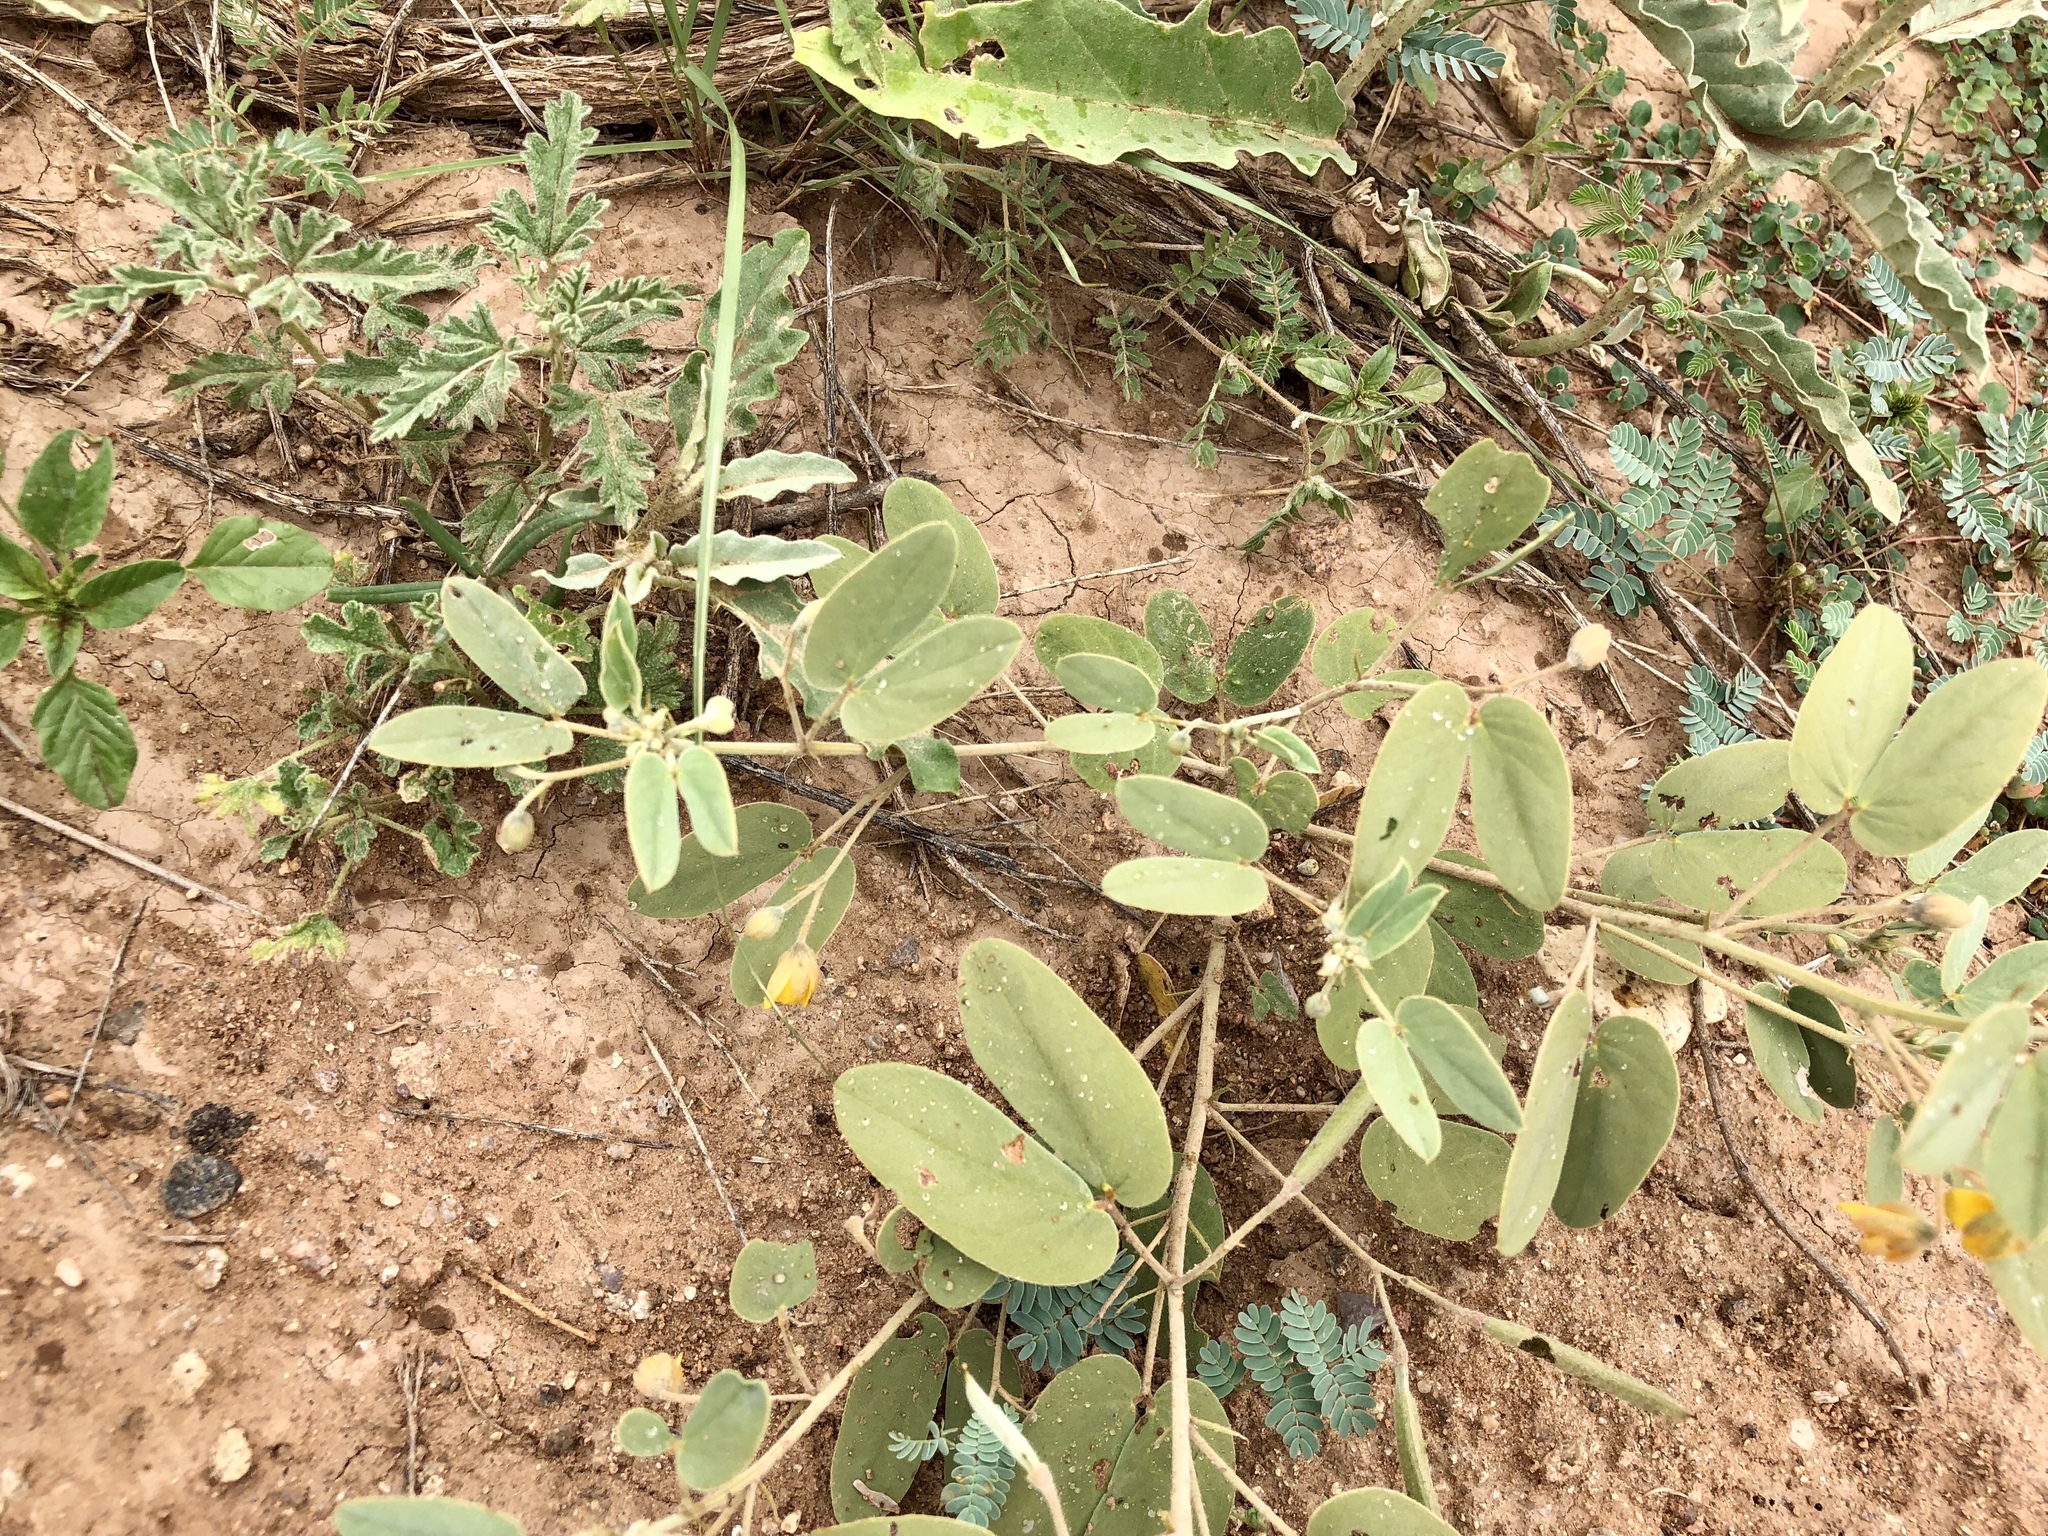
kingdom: Plantae
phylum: Tracheophyta
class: Magnoliopsida
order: Fabales
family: Fabaceae
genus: Senna
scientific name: Senna bauhinioides
